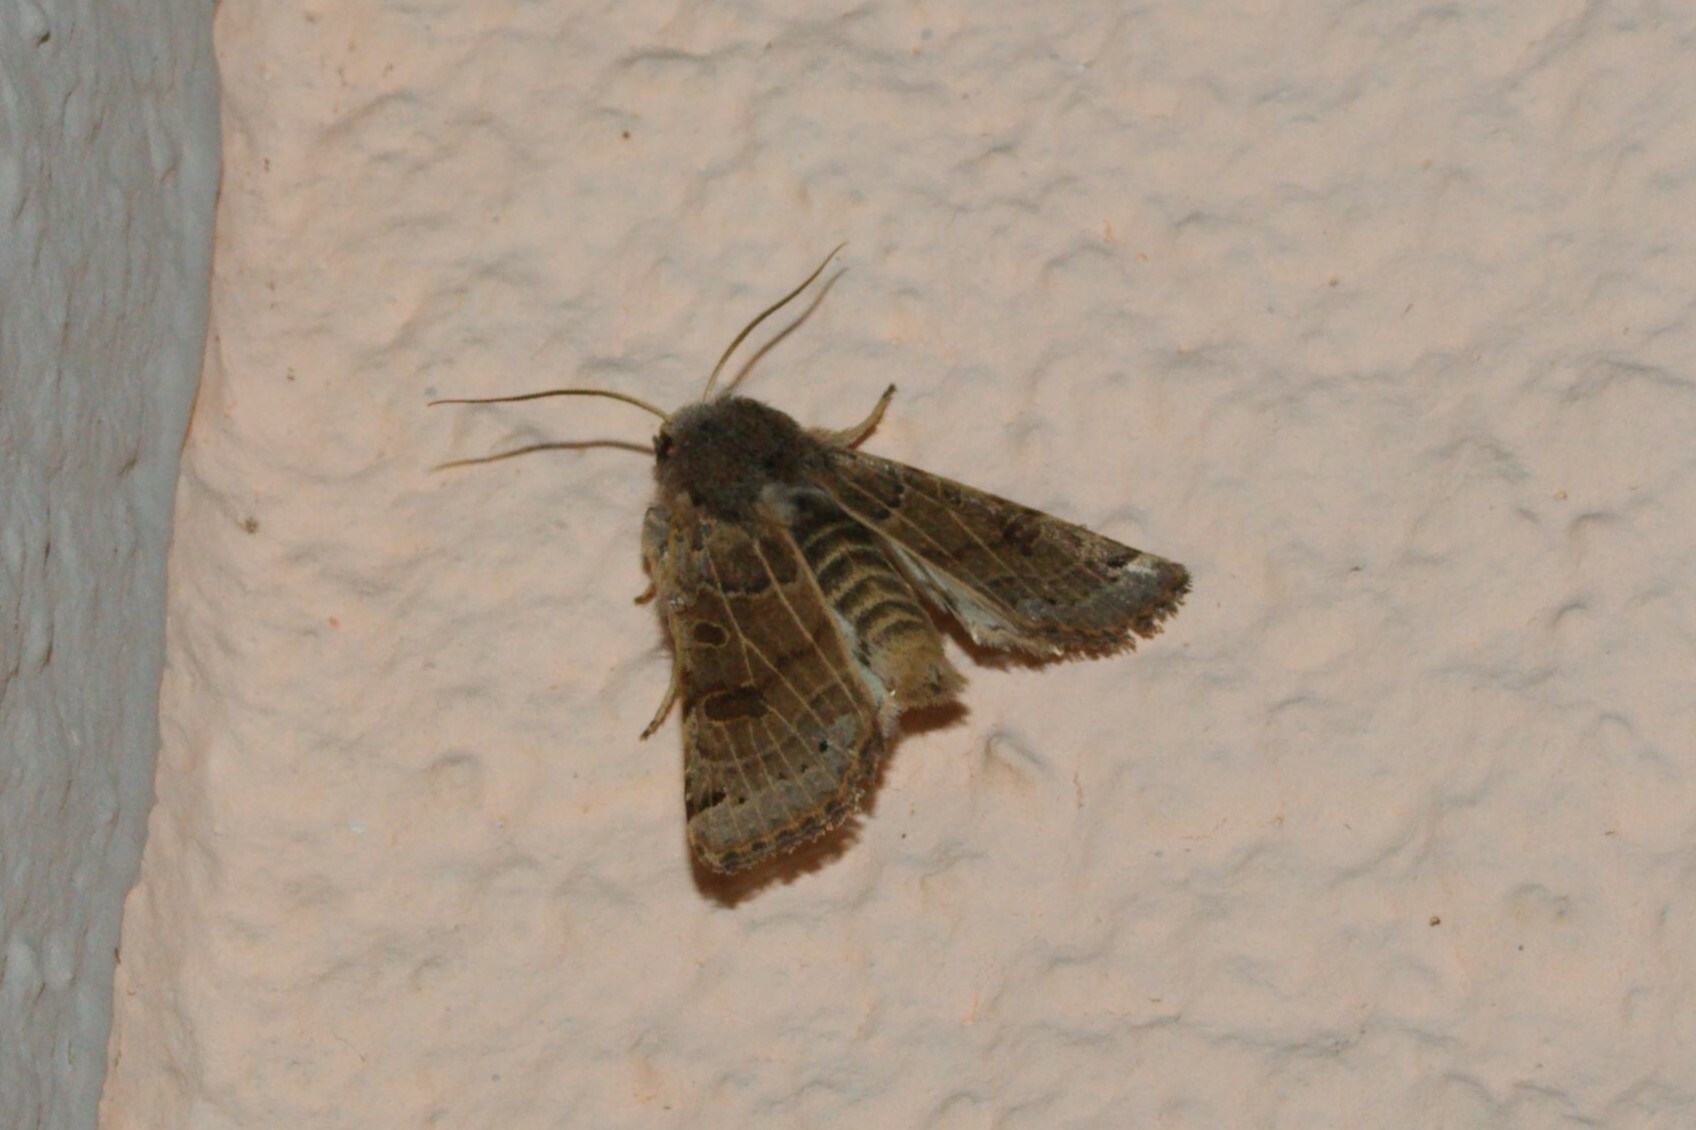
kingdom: Animalia
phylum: Arthropoda
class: Insecta
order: Lepidoptera
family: Noctuidae
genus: Agrochola
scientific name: Agrochola lunosa
